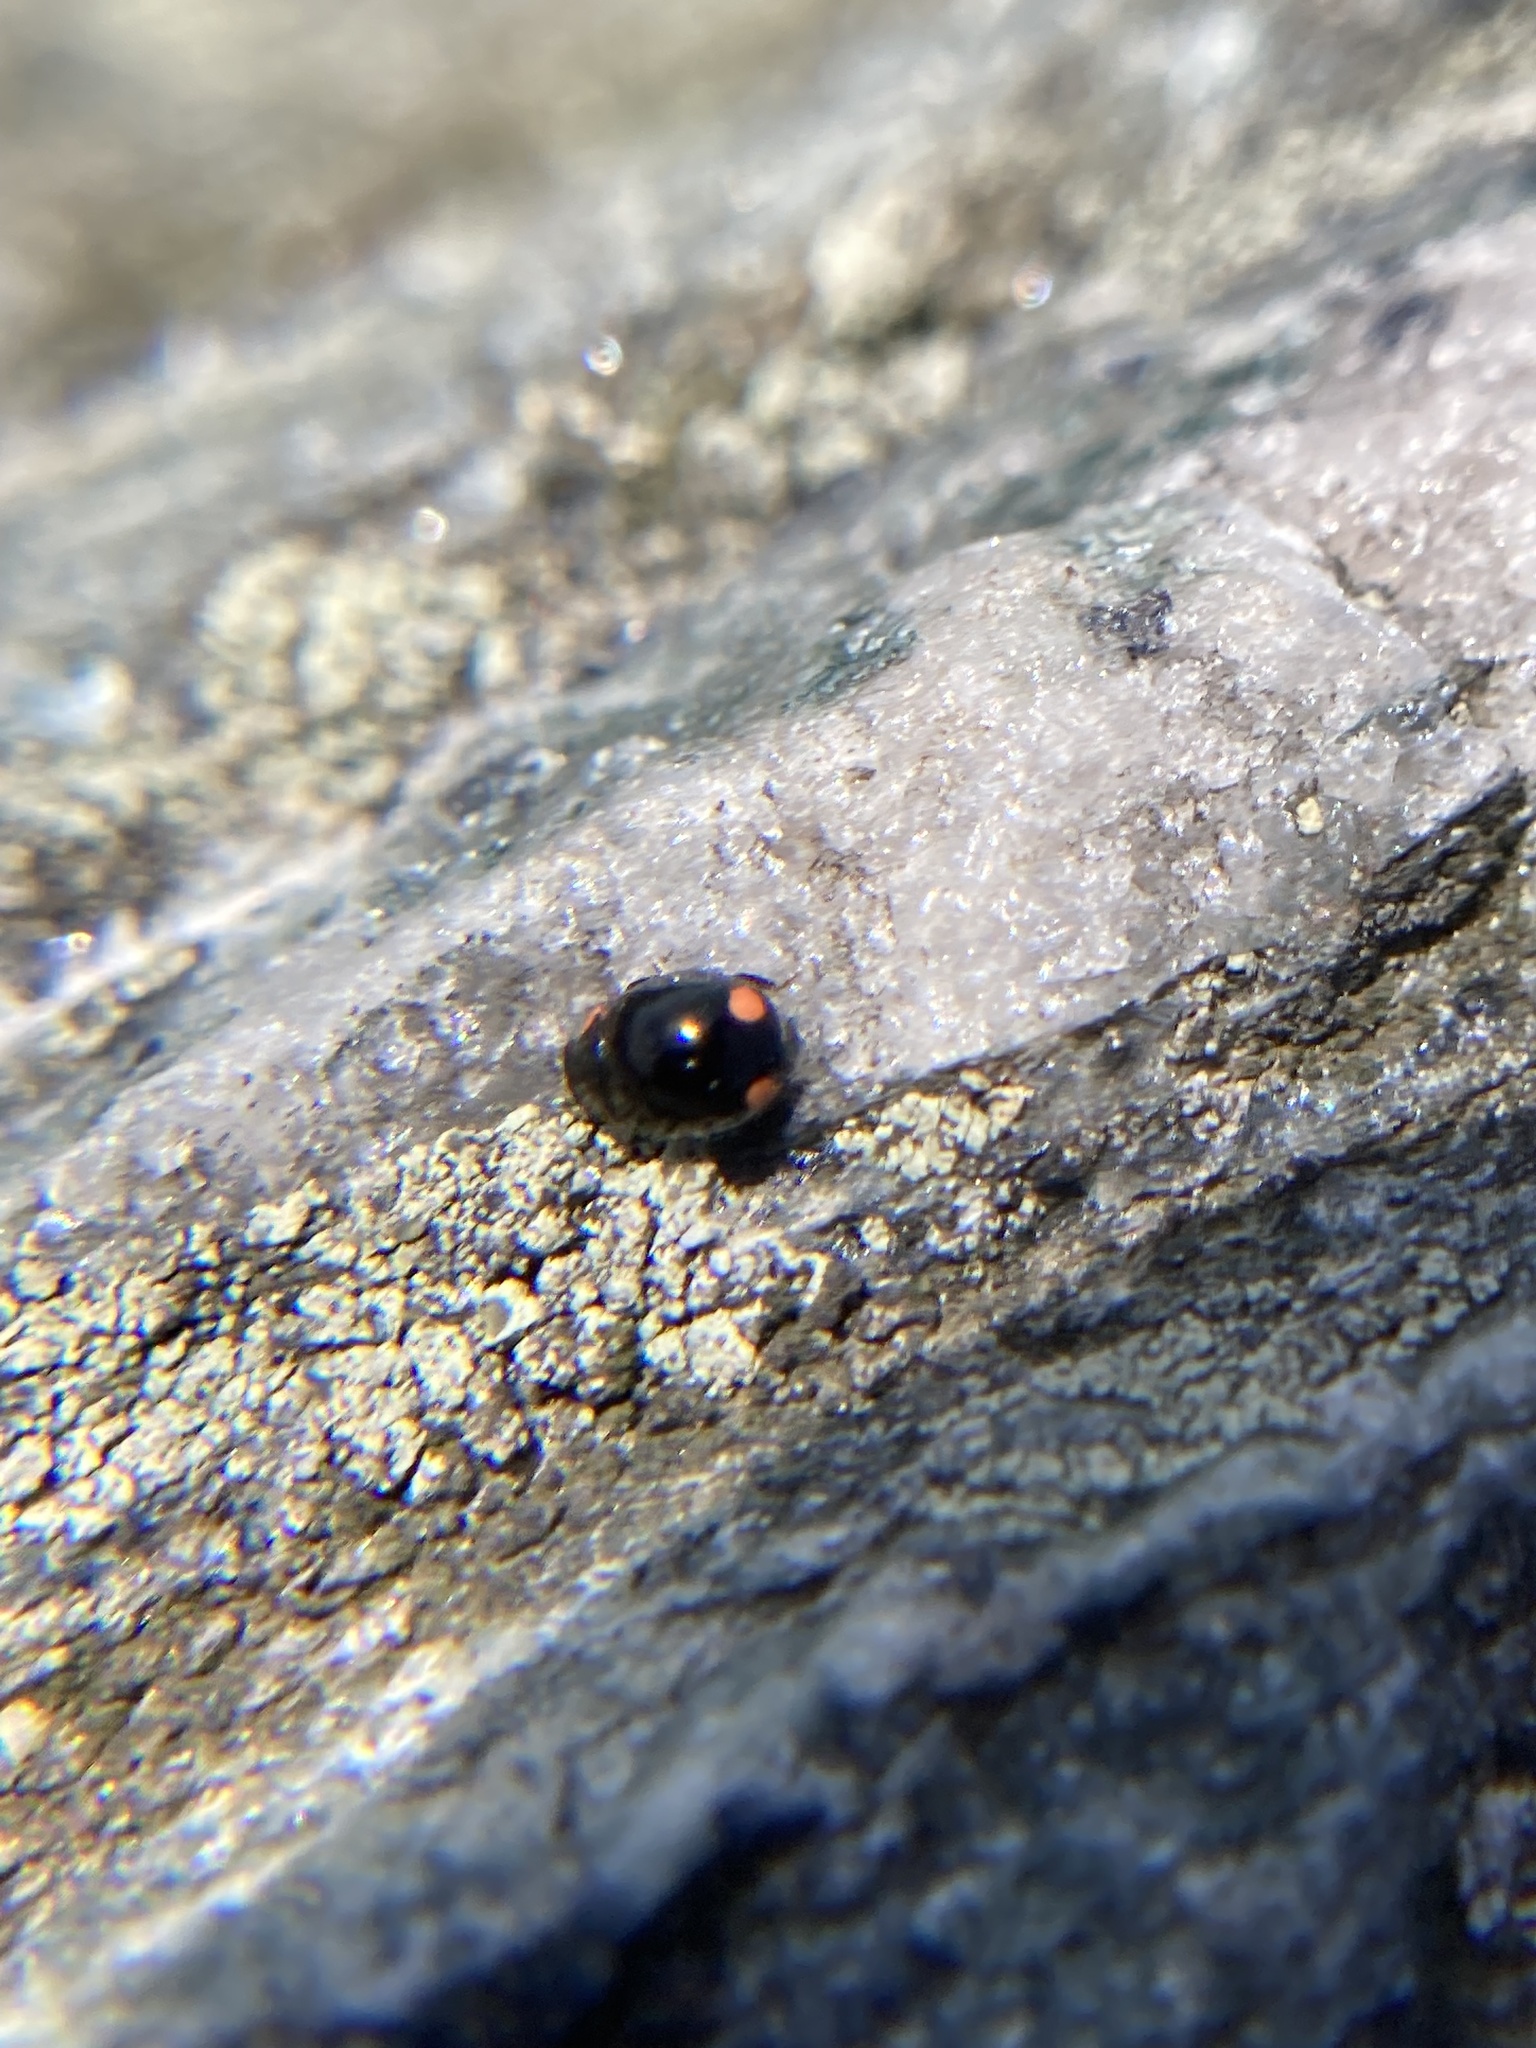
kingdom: Animalia
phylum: Arthropoda
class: Insecta
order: Coleoptera
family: Coccinellidae
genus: Hyperaspis
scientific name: Hyperaspis bigeminata
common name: Bigeminate sigil lady beetle
